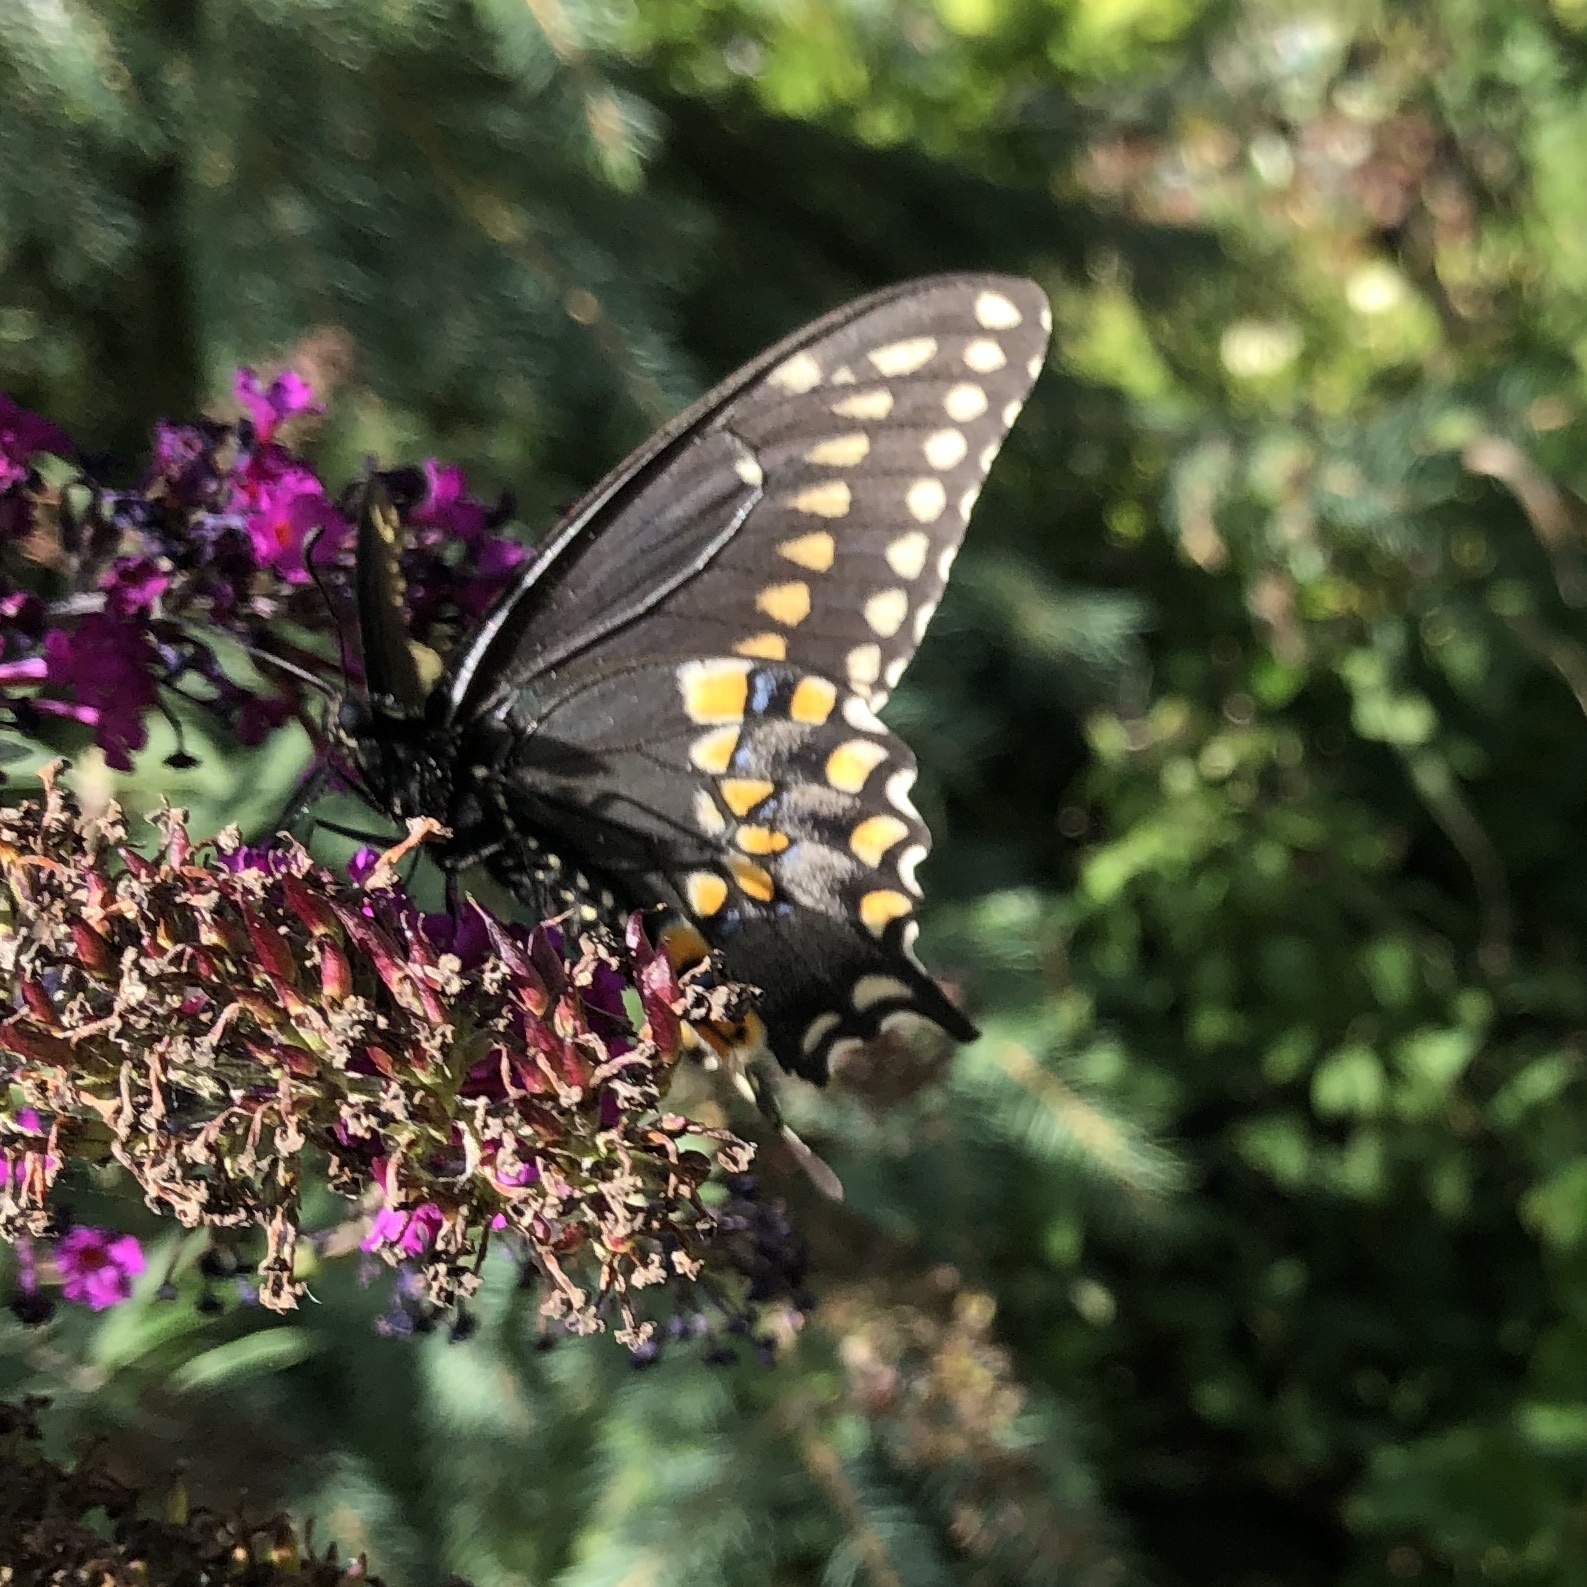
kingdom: Animalia
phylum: Arthropoda
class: Insecta
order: Lepidoptera
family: Papilionidae
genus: Papilio
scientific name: Papilio polyxenes
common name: Black swallowtail
